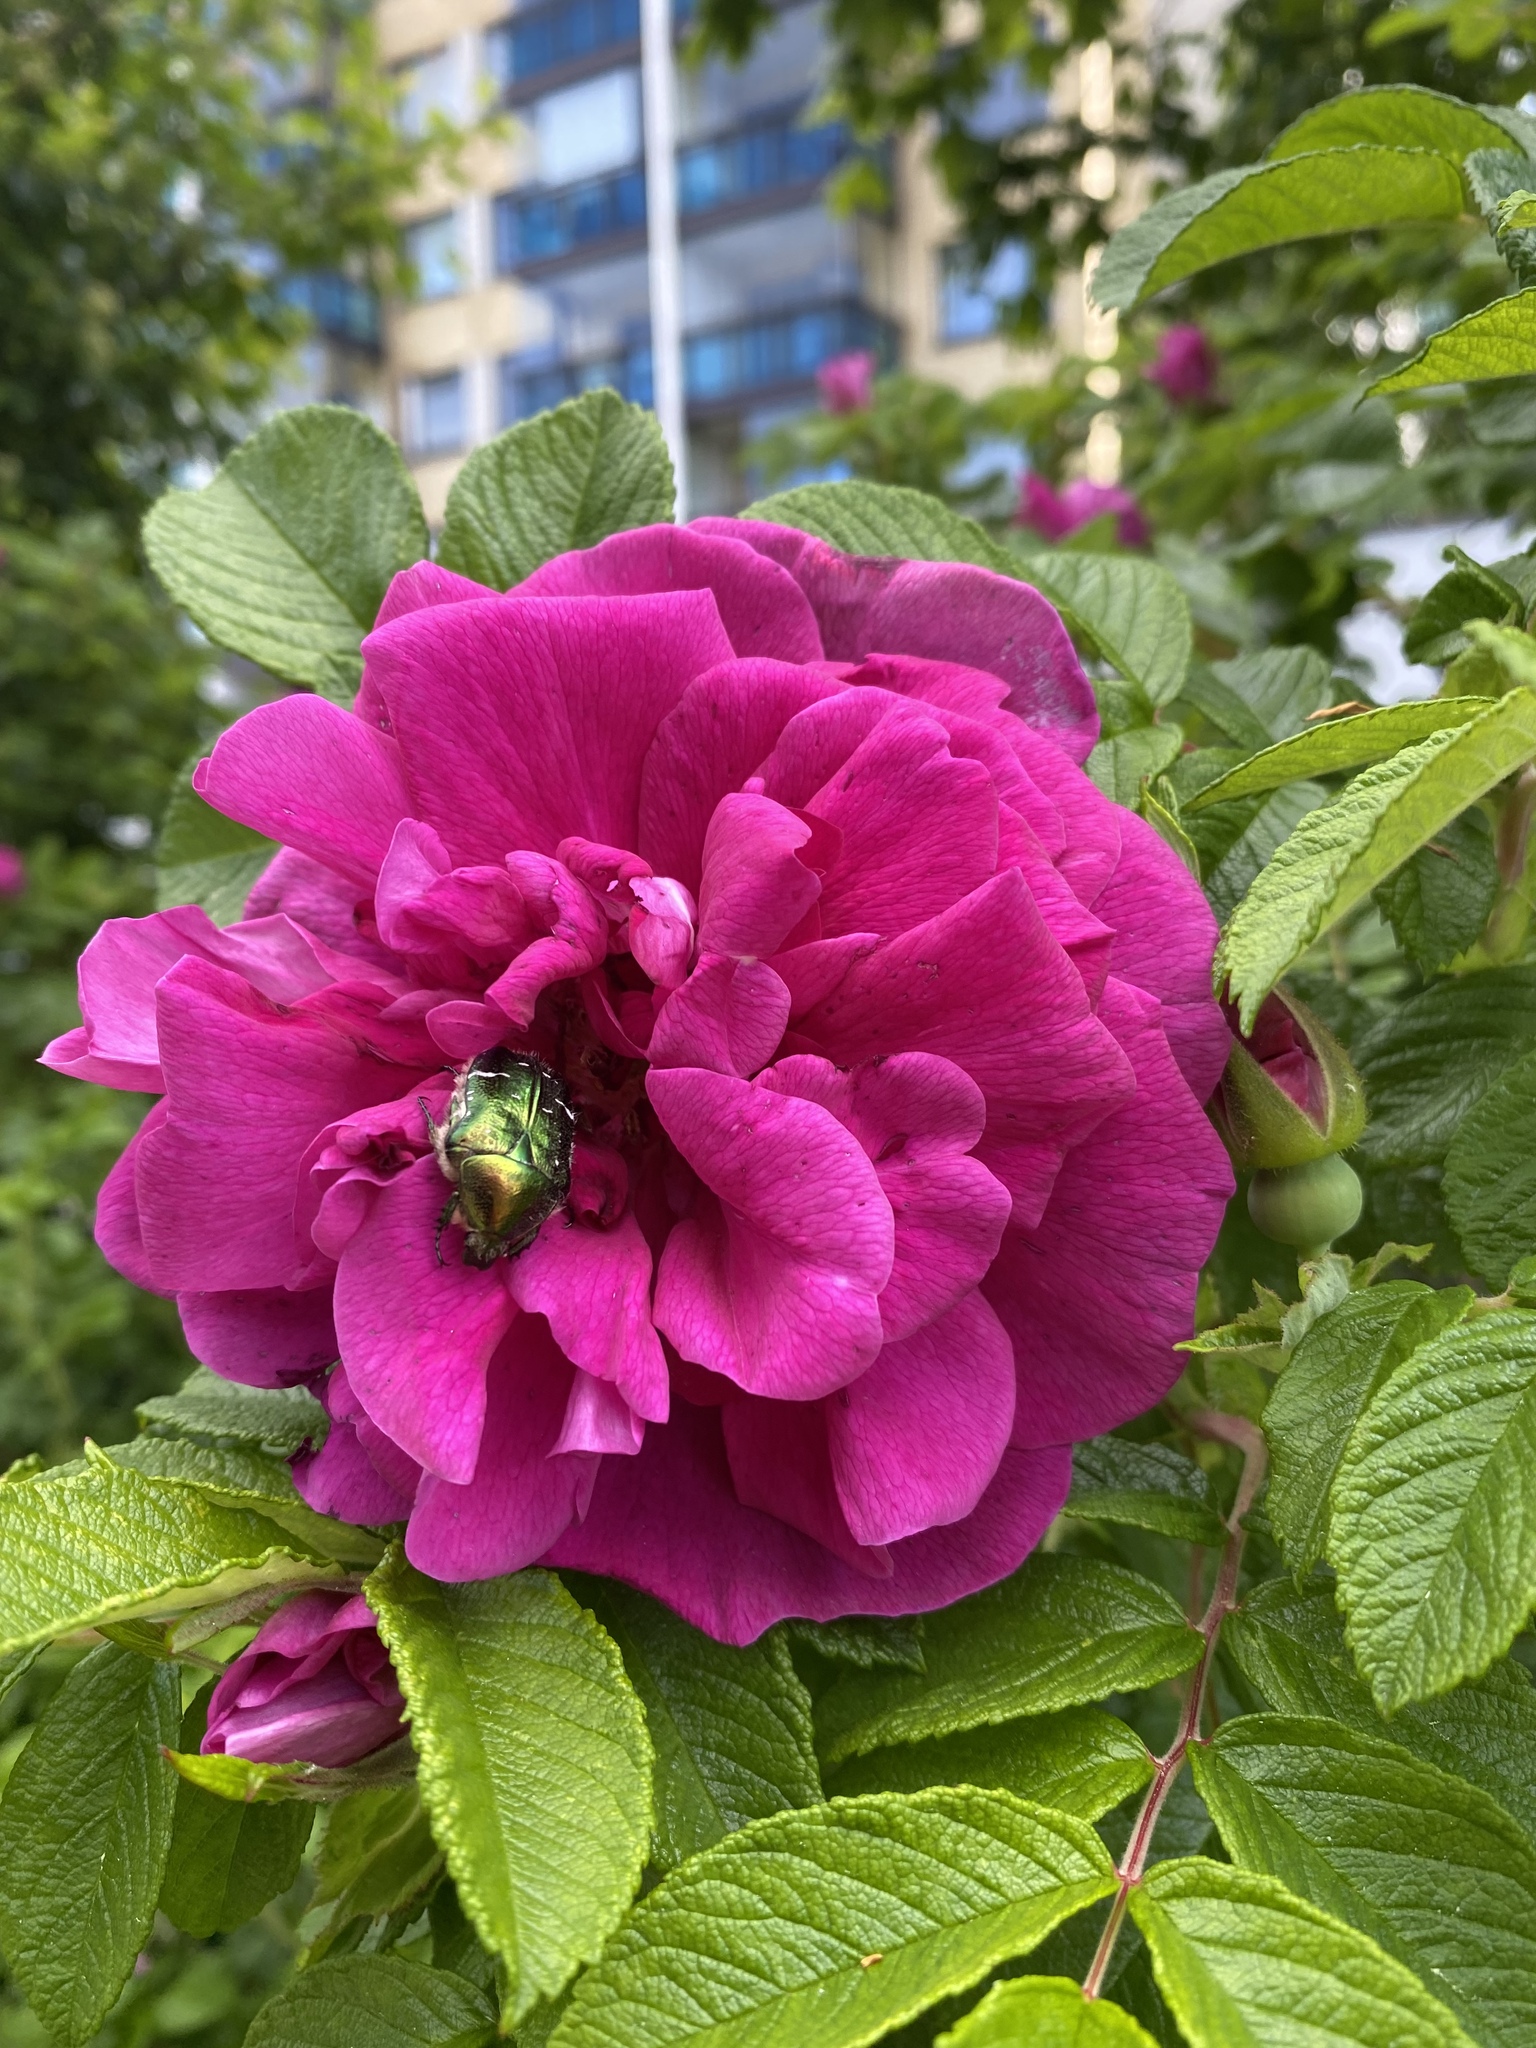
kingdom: Animalia
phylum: Arthropoda
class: Insecta
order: Coleoptera
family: Scarabaeidae
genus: Cetonia
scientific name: Cetonia aurata
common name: Rose chafer
